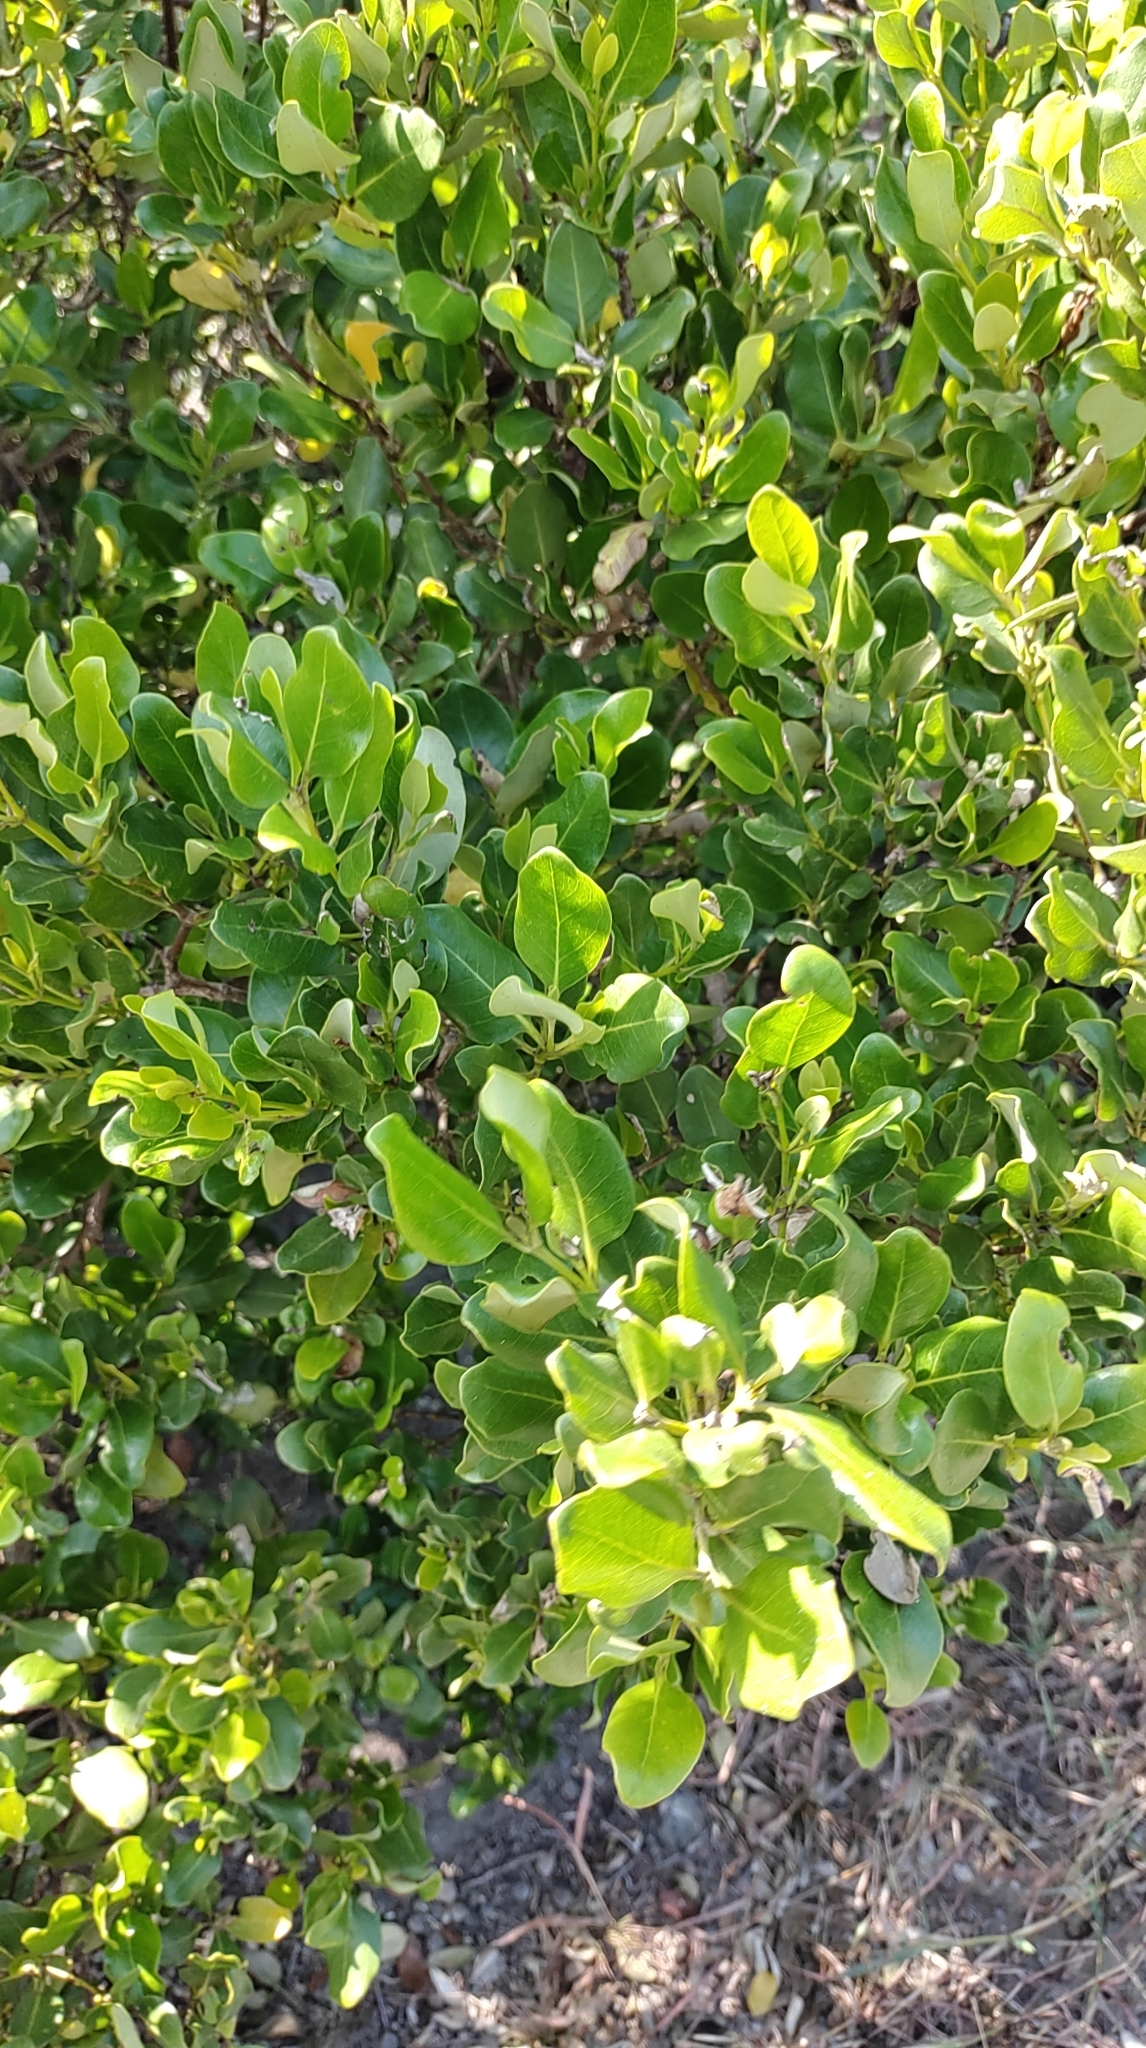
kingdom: Plantae
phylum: Tracheophyta
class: Magnoliopsida
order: Lamiales
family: Acanthaceae
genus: Avicennia
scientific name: Avicennia marina
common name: Gray mangrove
